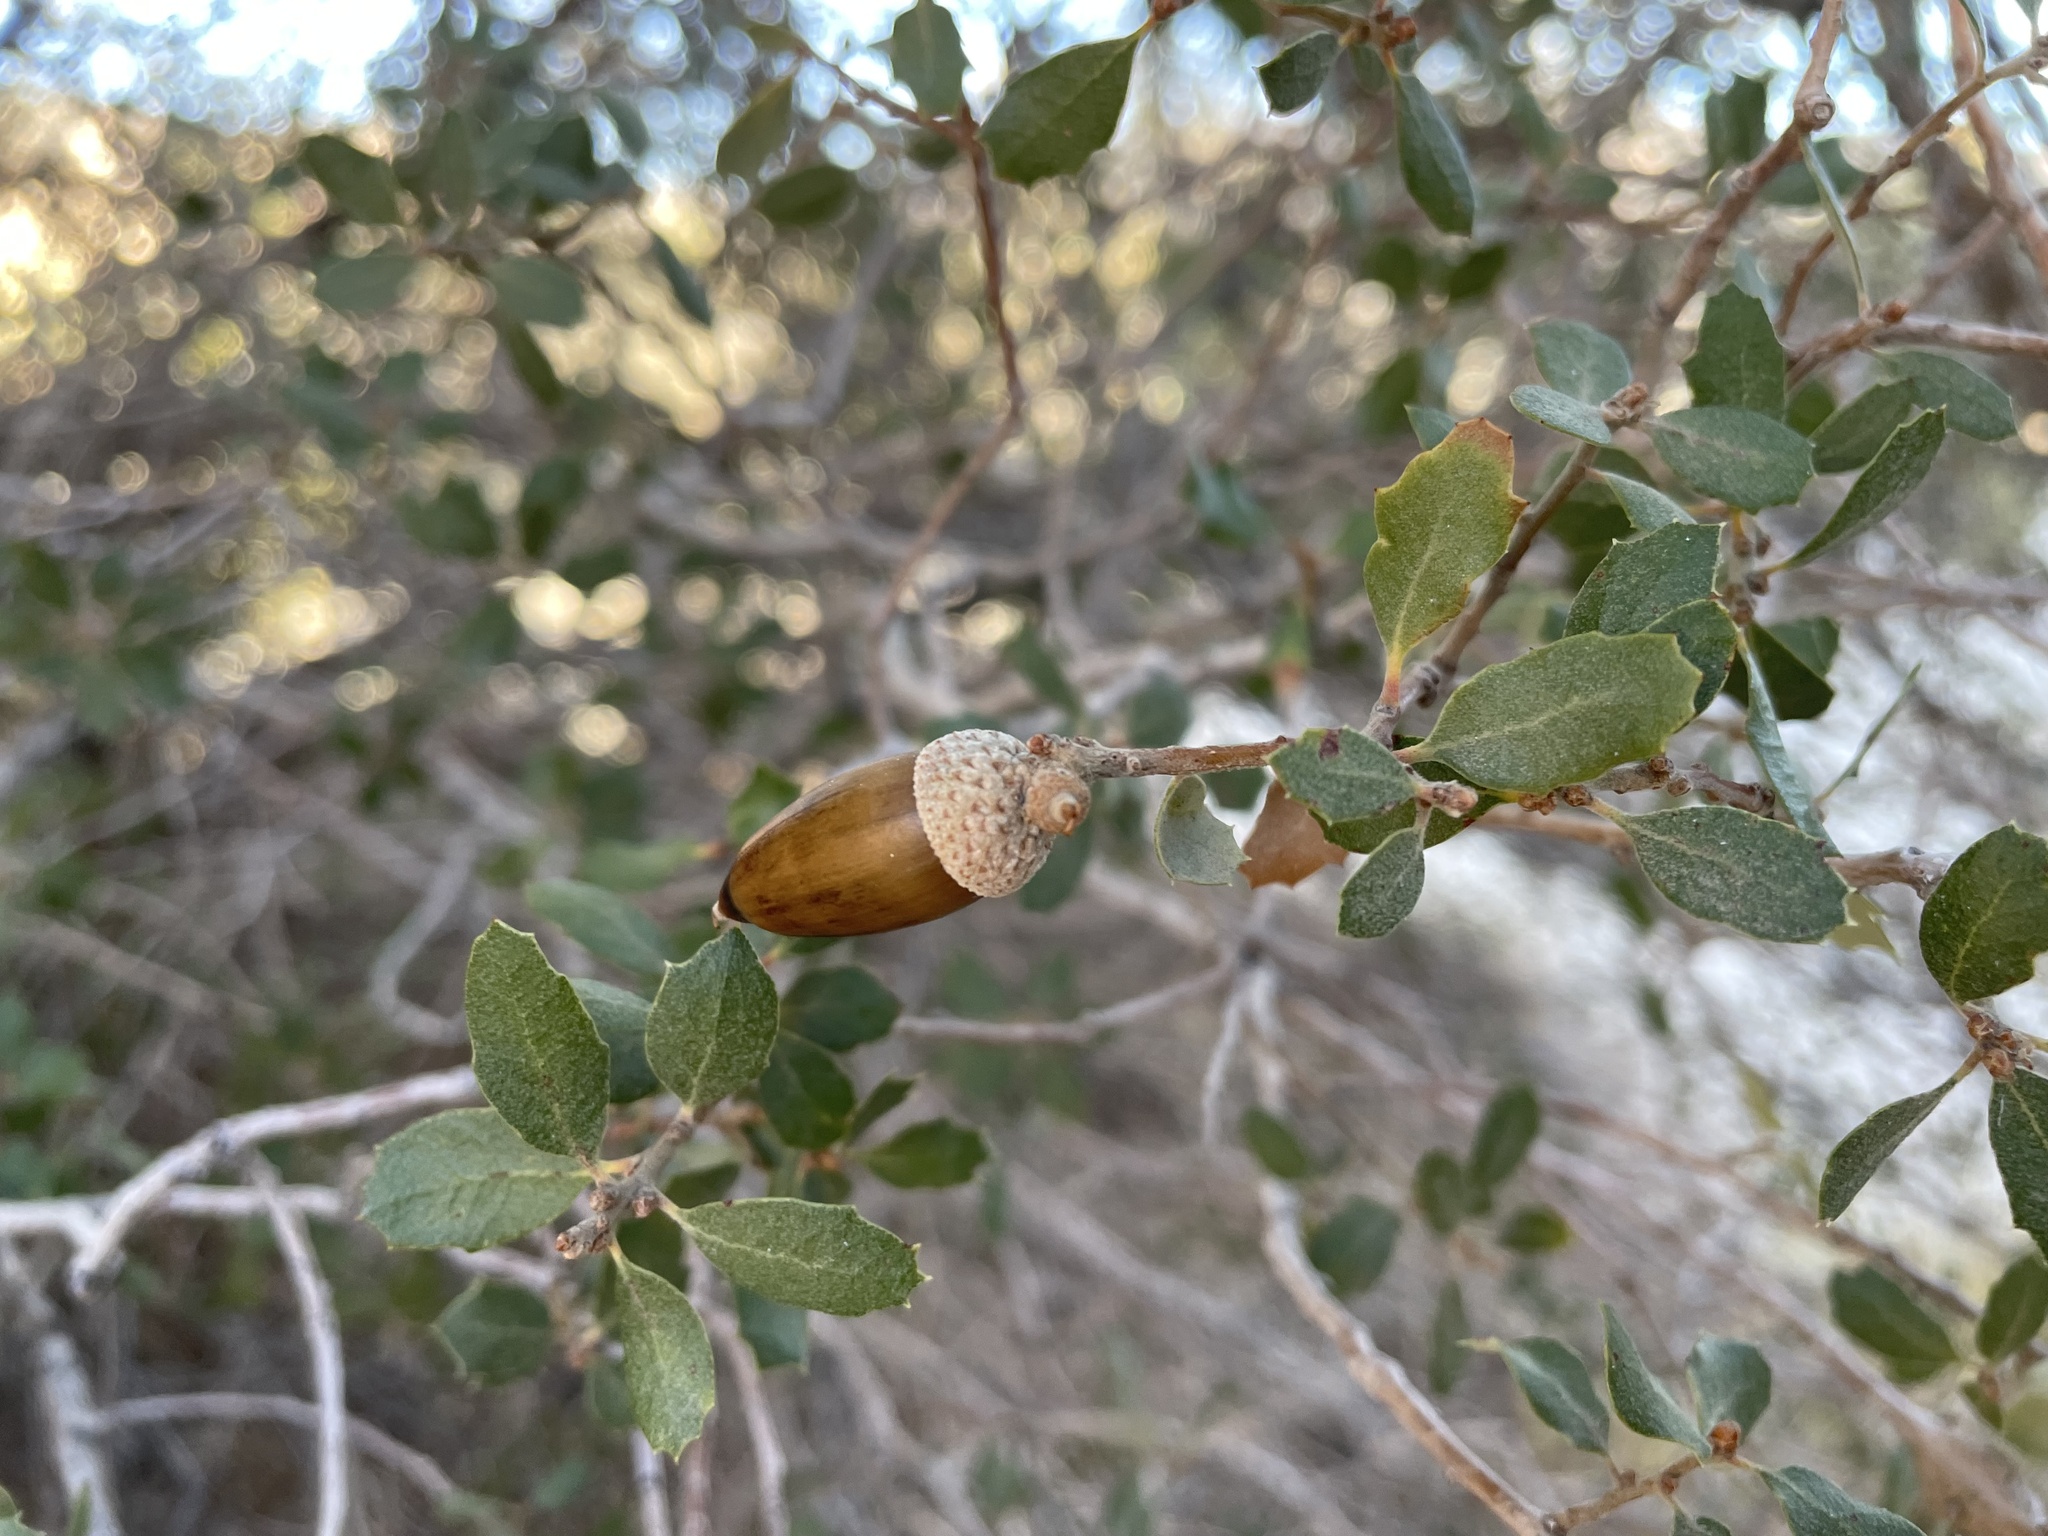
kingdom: Plantae
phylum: Tracheophyta
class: Magnoliopsida
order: Fagales
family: Fagaceae
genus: Quercus
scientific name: Quercus cornelius-mulleri
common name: Muller oak
